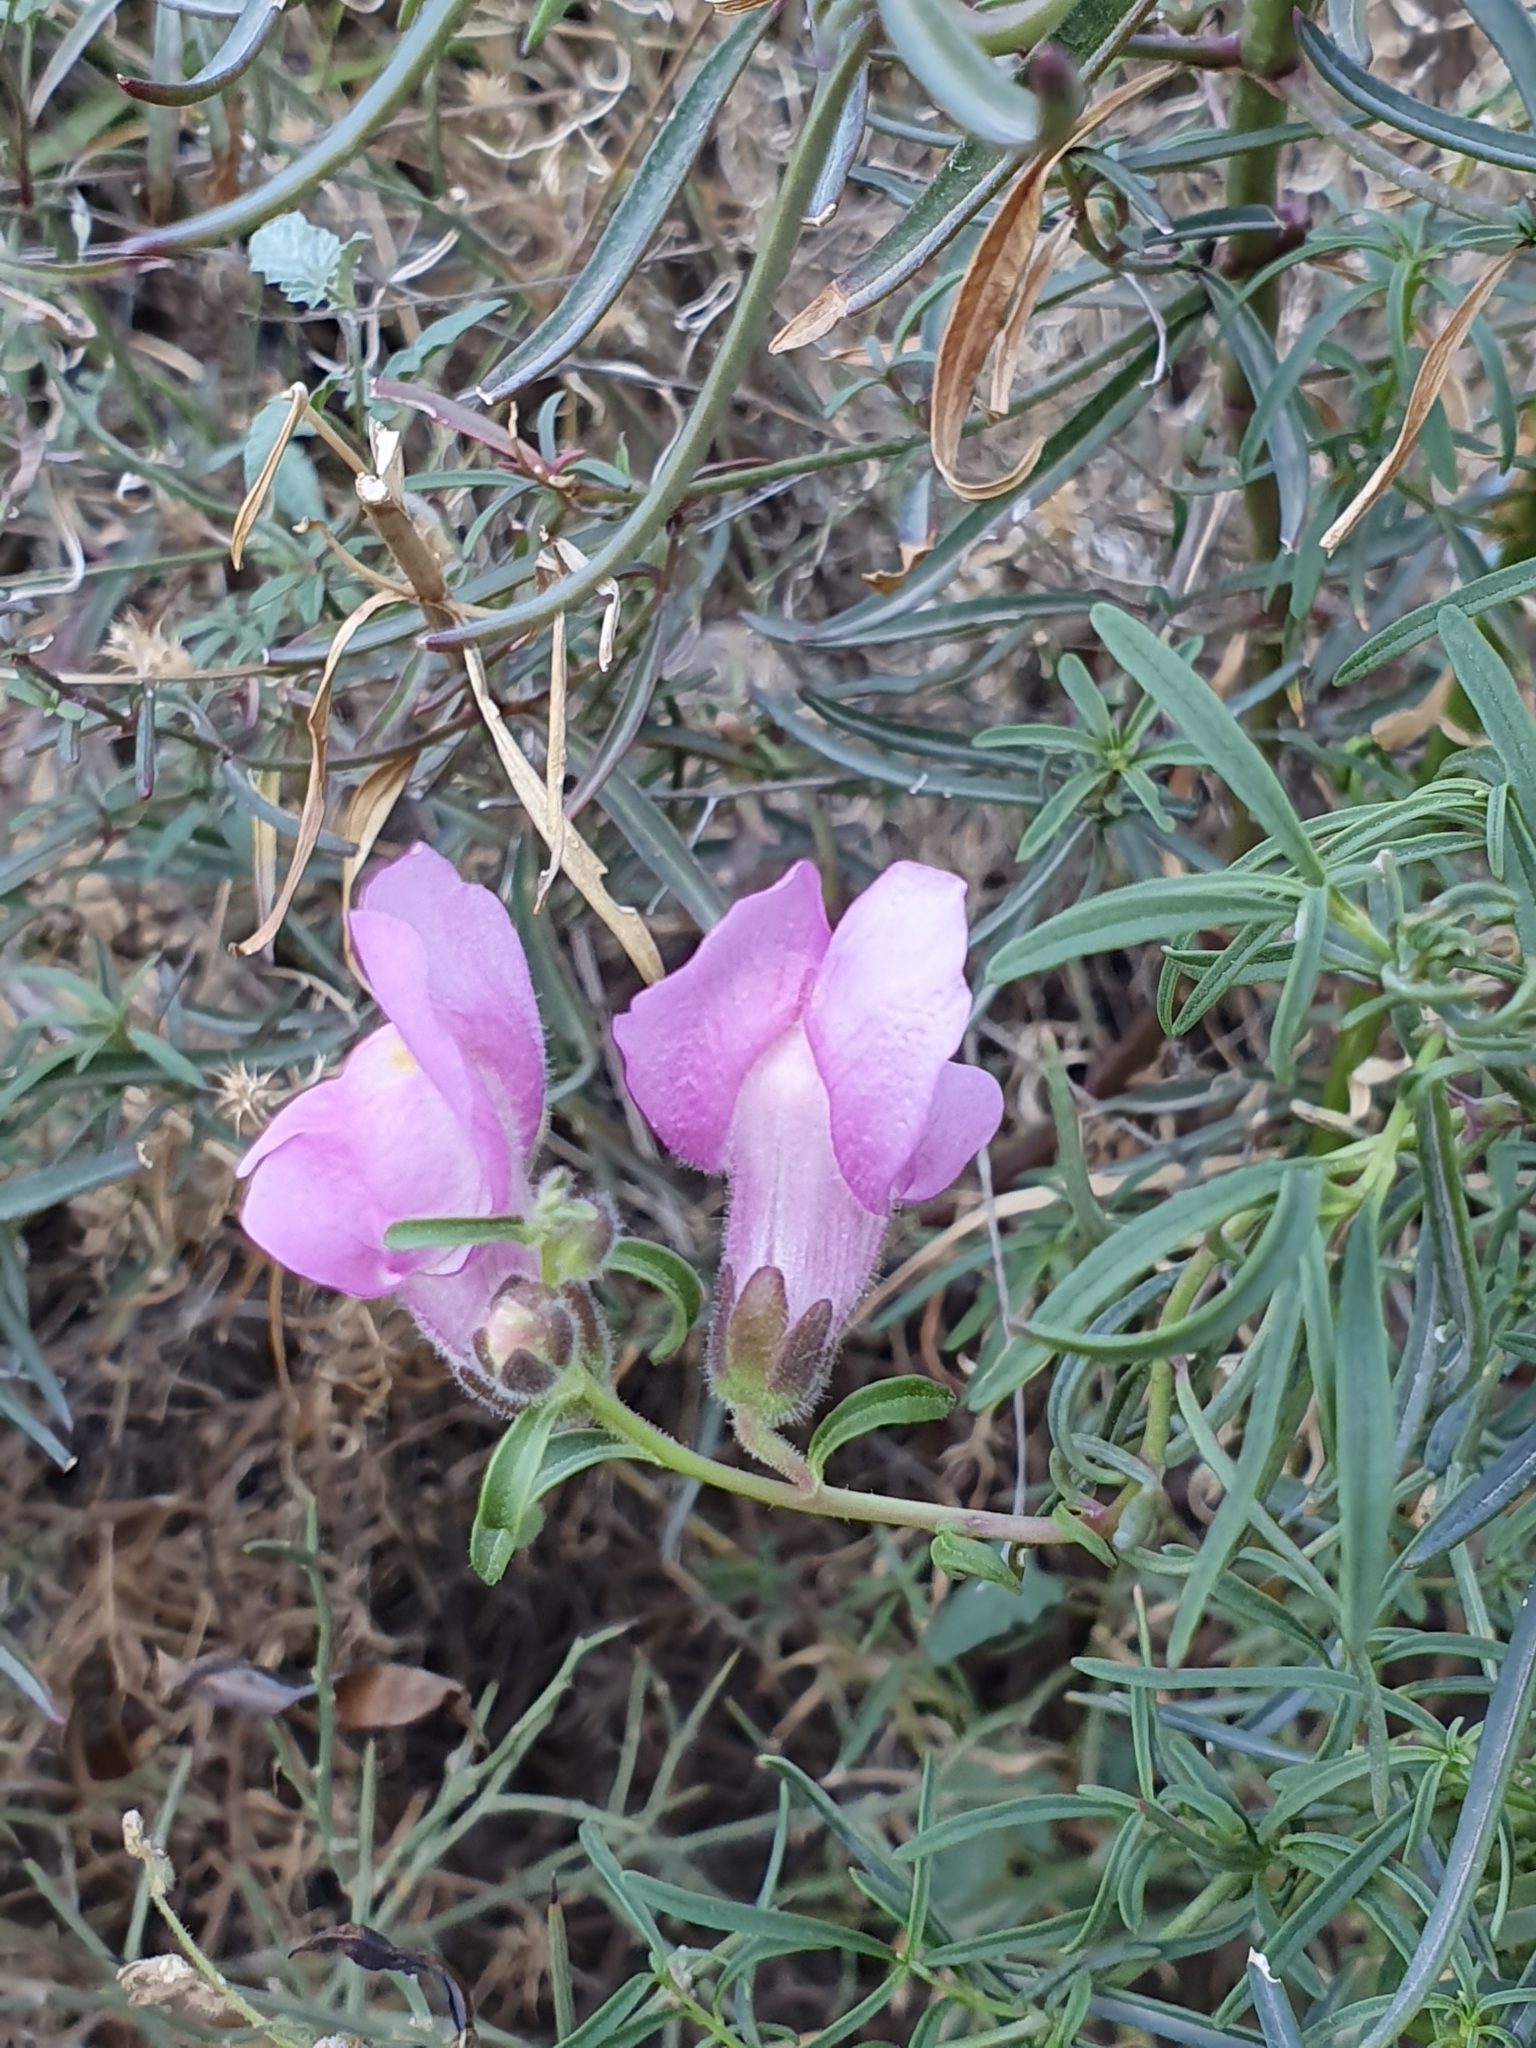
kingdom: Plantae
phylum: Tracheophyta
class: Magnoliopsida
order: Lamiales
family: Plantaginaceae
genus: Antirrhinum
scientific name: Antirrhinum tortuosum
